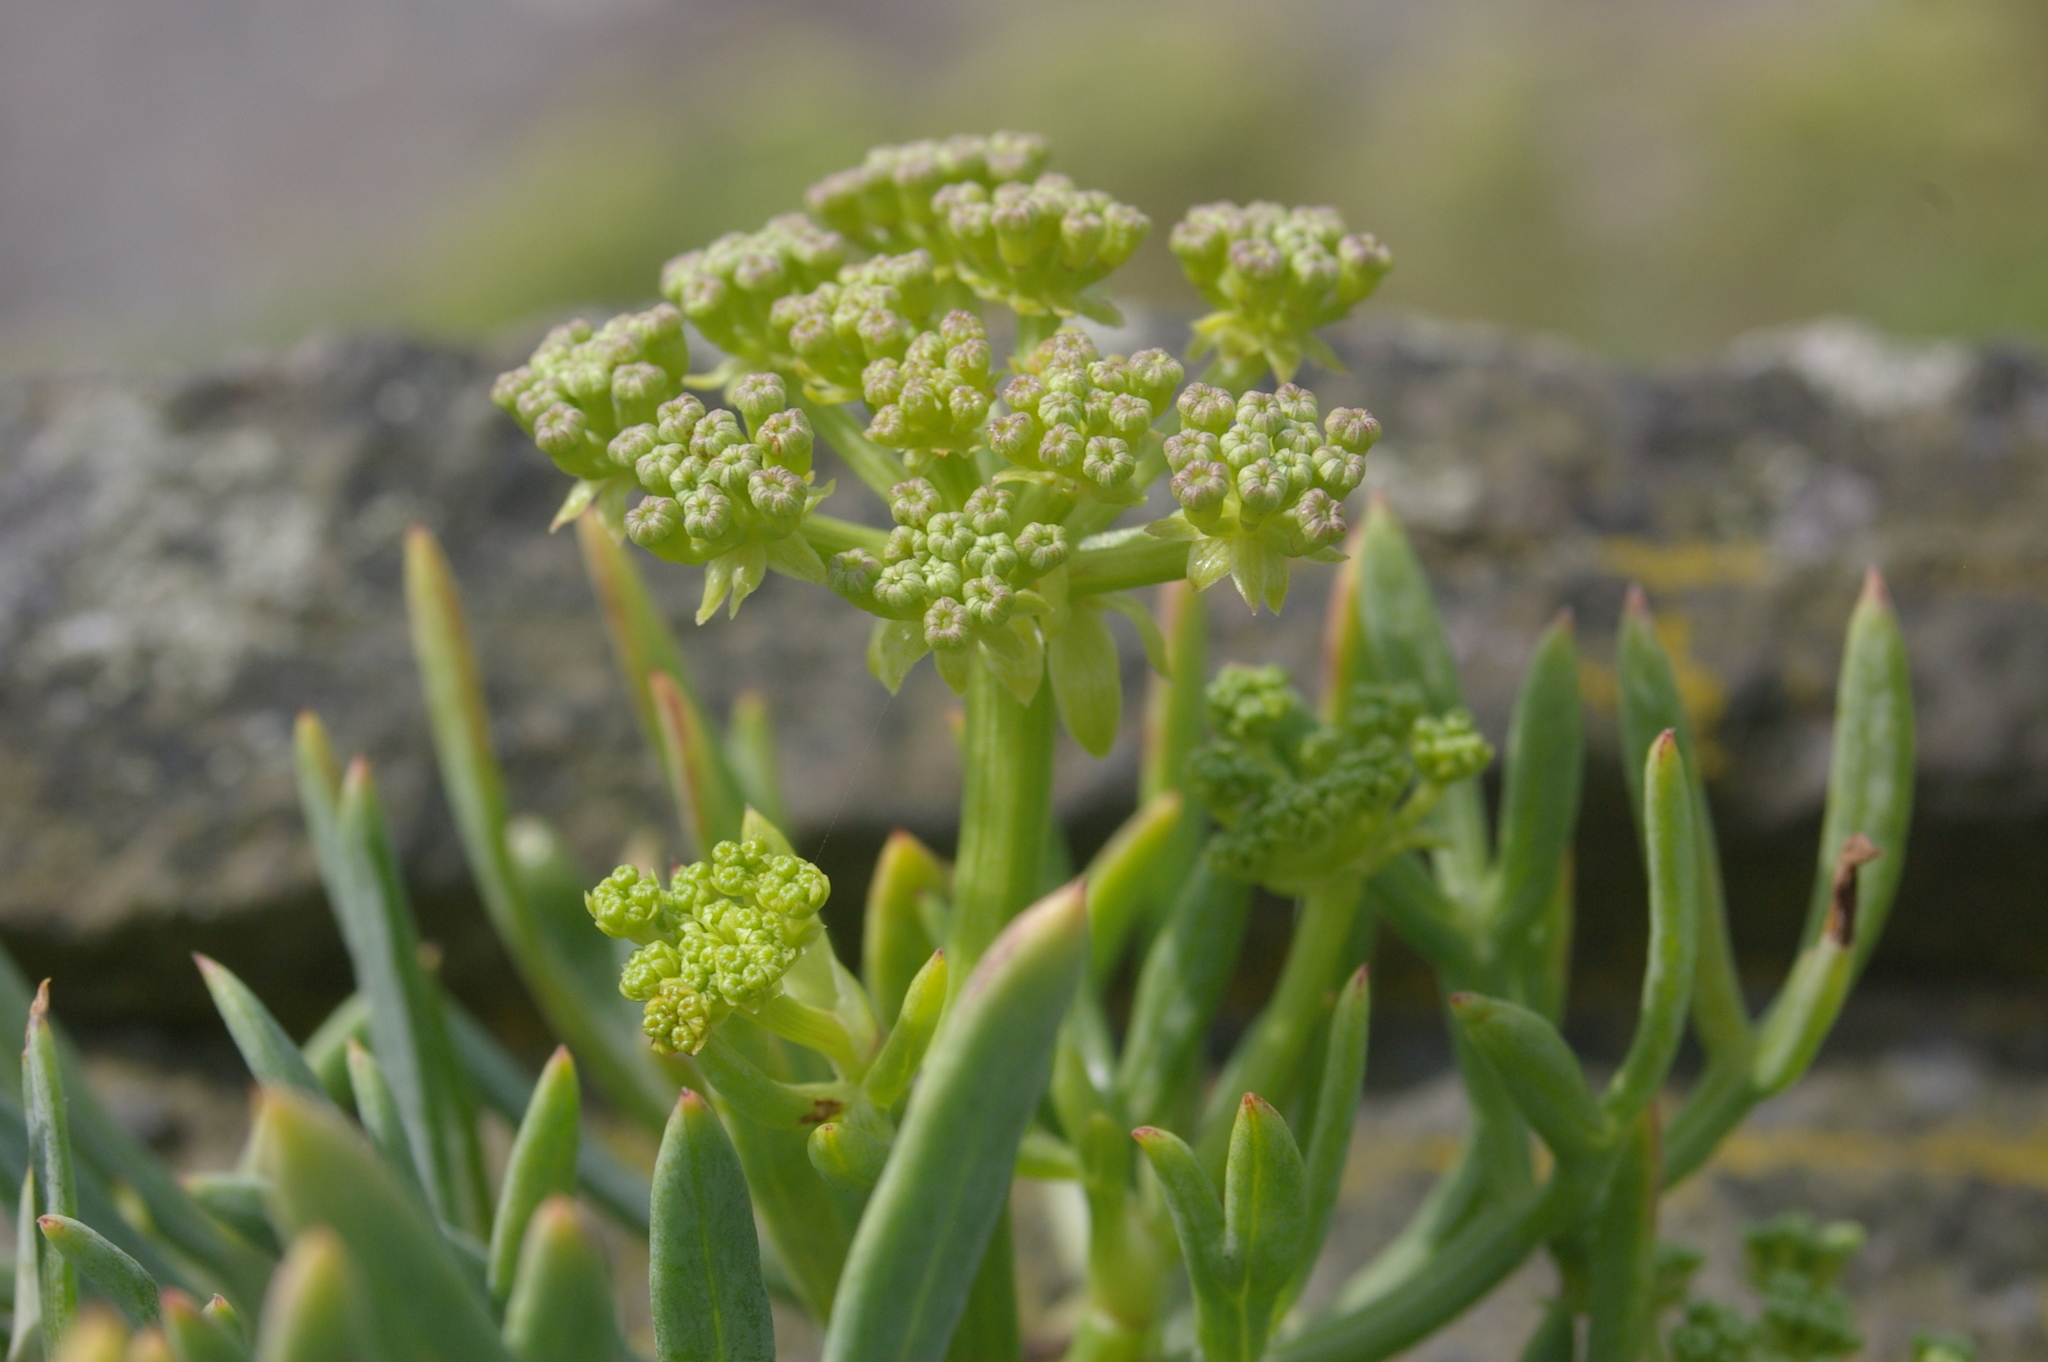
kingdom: Plantae
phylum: Tracheophyta
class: Magnoliopsida
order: Apiales
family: Apiaceae
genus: Crithmum
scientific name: Crithmum maritimum
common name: Rock samphire
